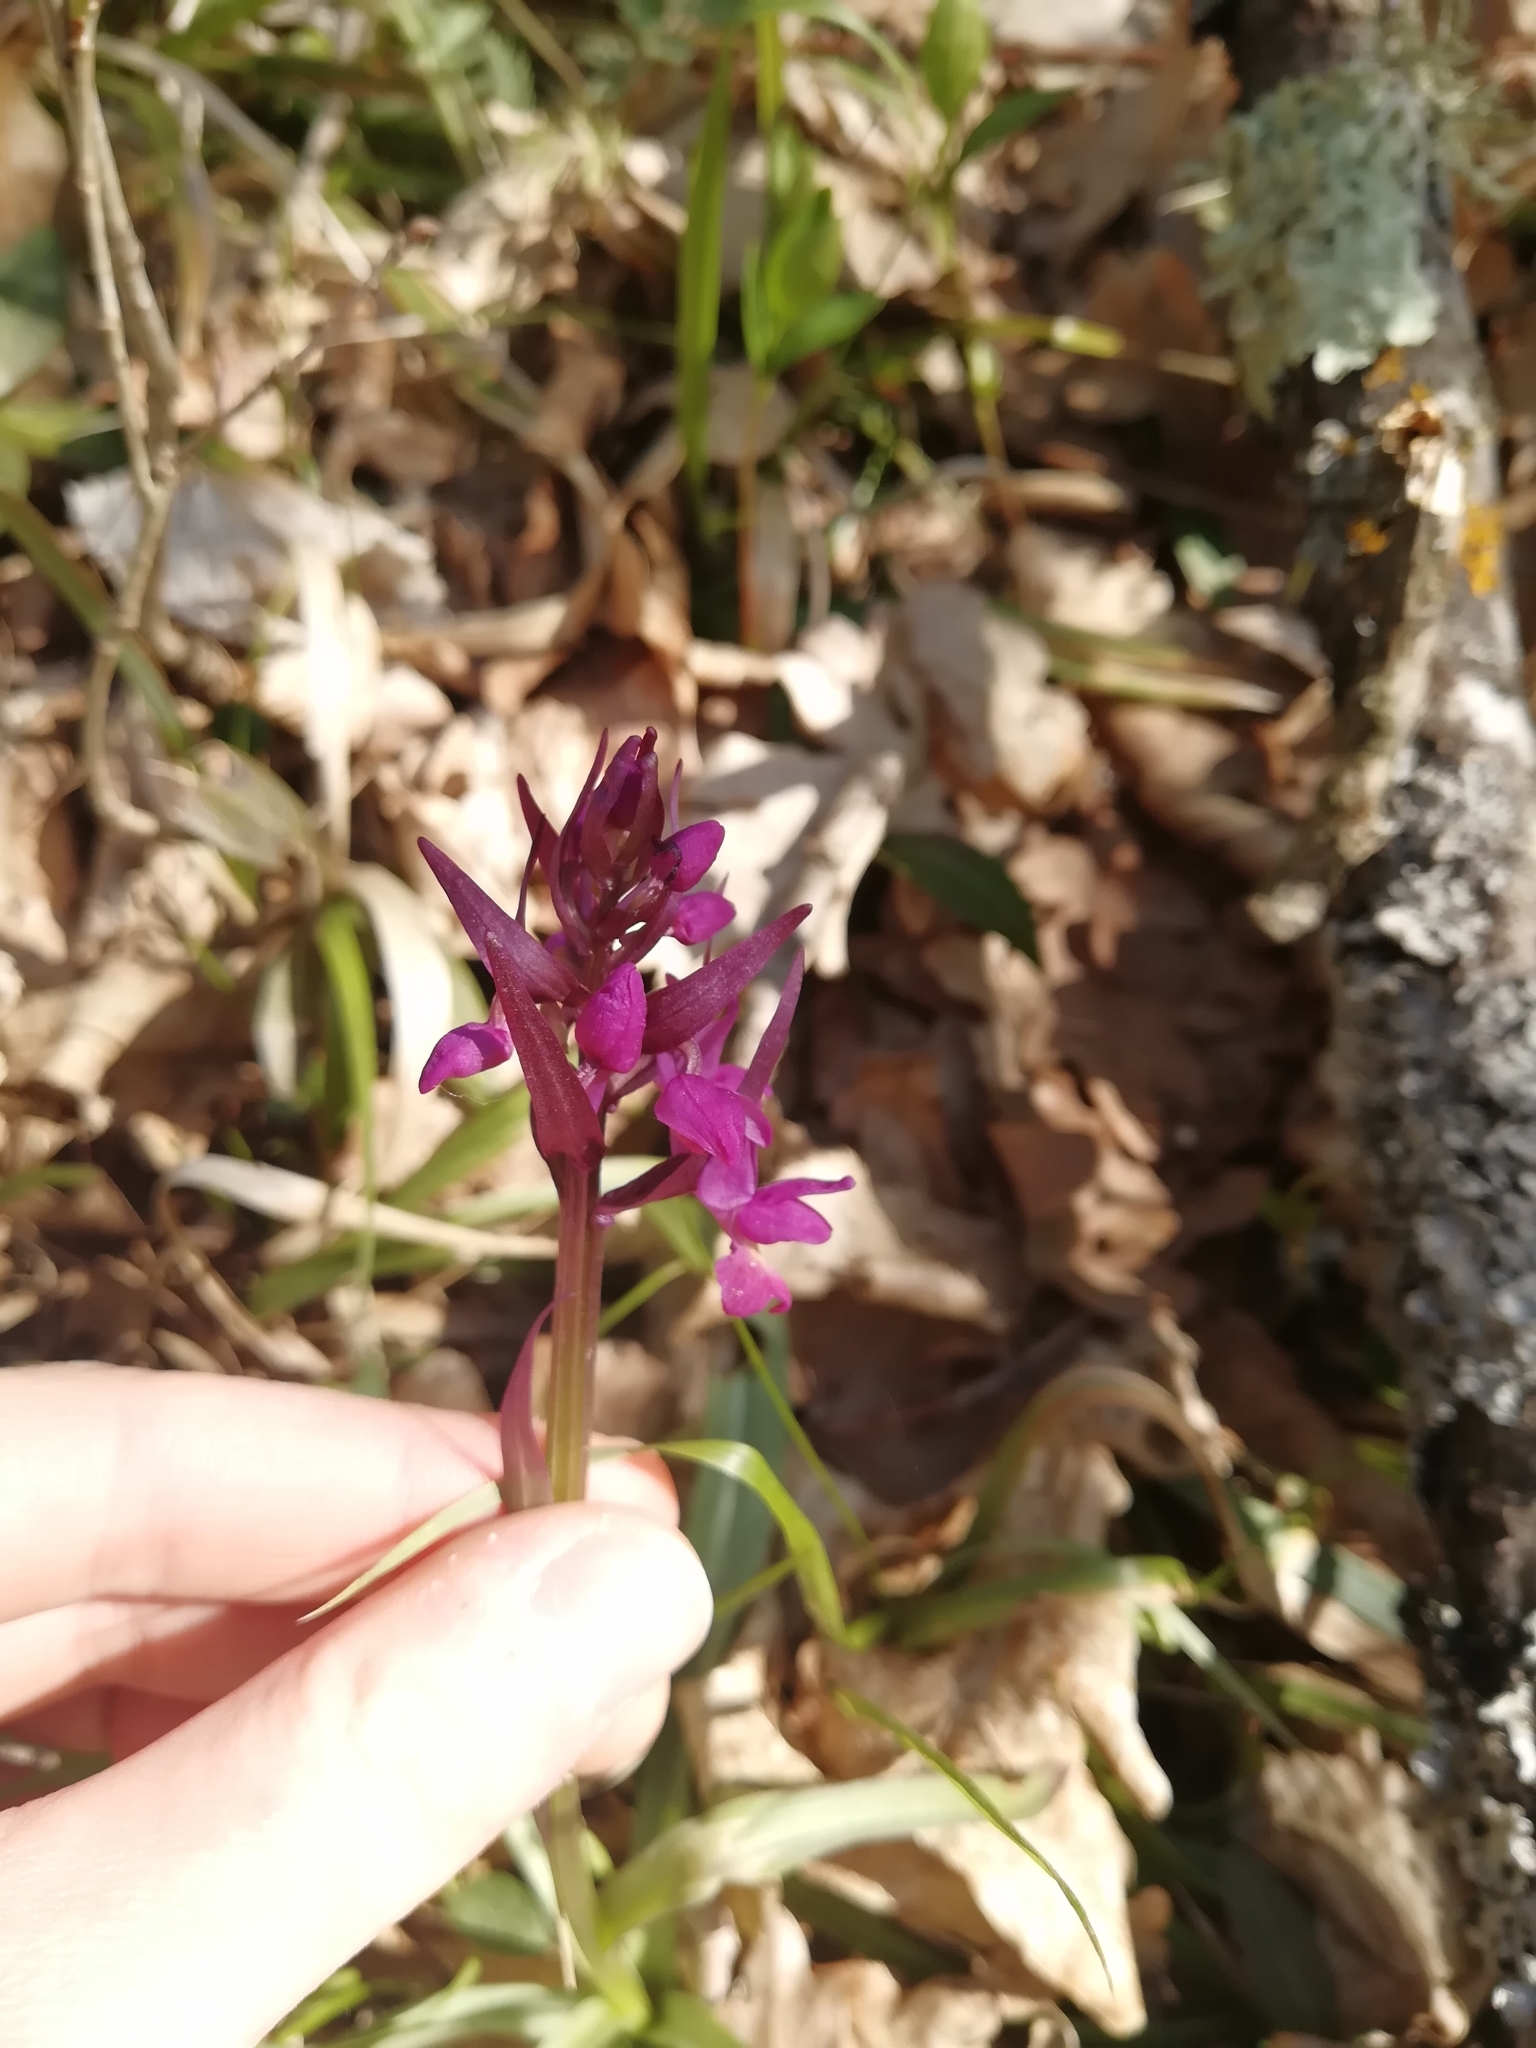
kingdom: Plantae
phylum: Tracheophyta
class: Liliopsida
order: Asparagales
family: Orchidaceae
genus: Dactylorhiza
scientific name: Dactylorhiza romana
